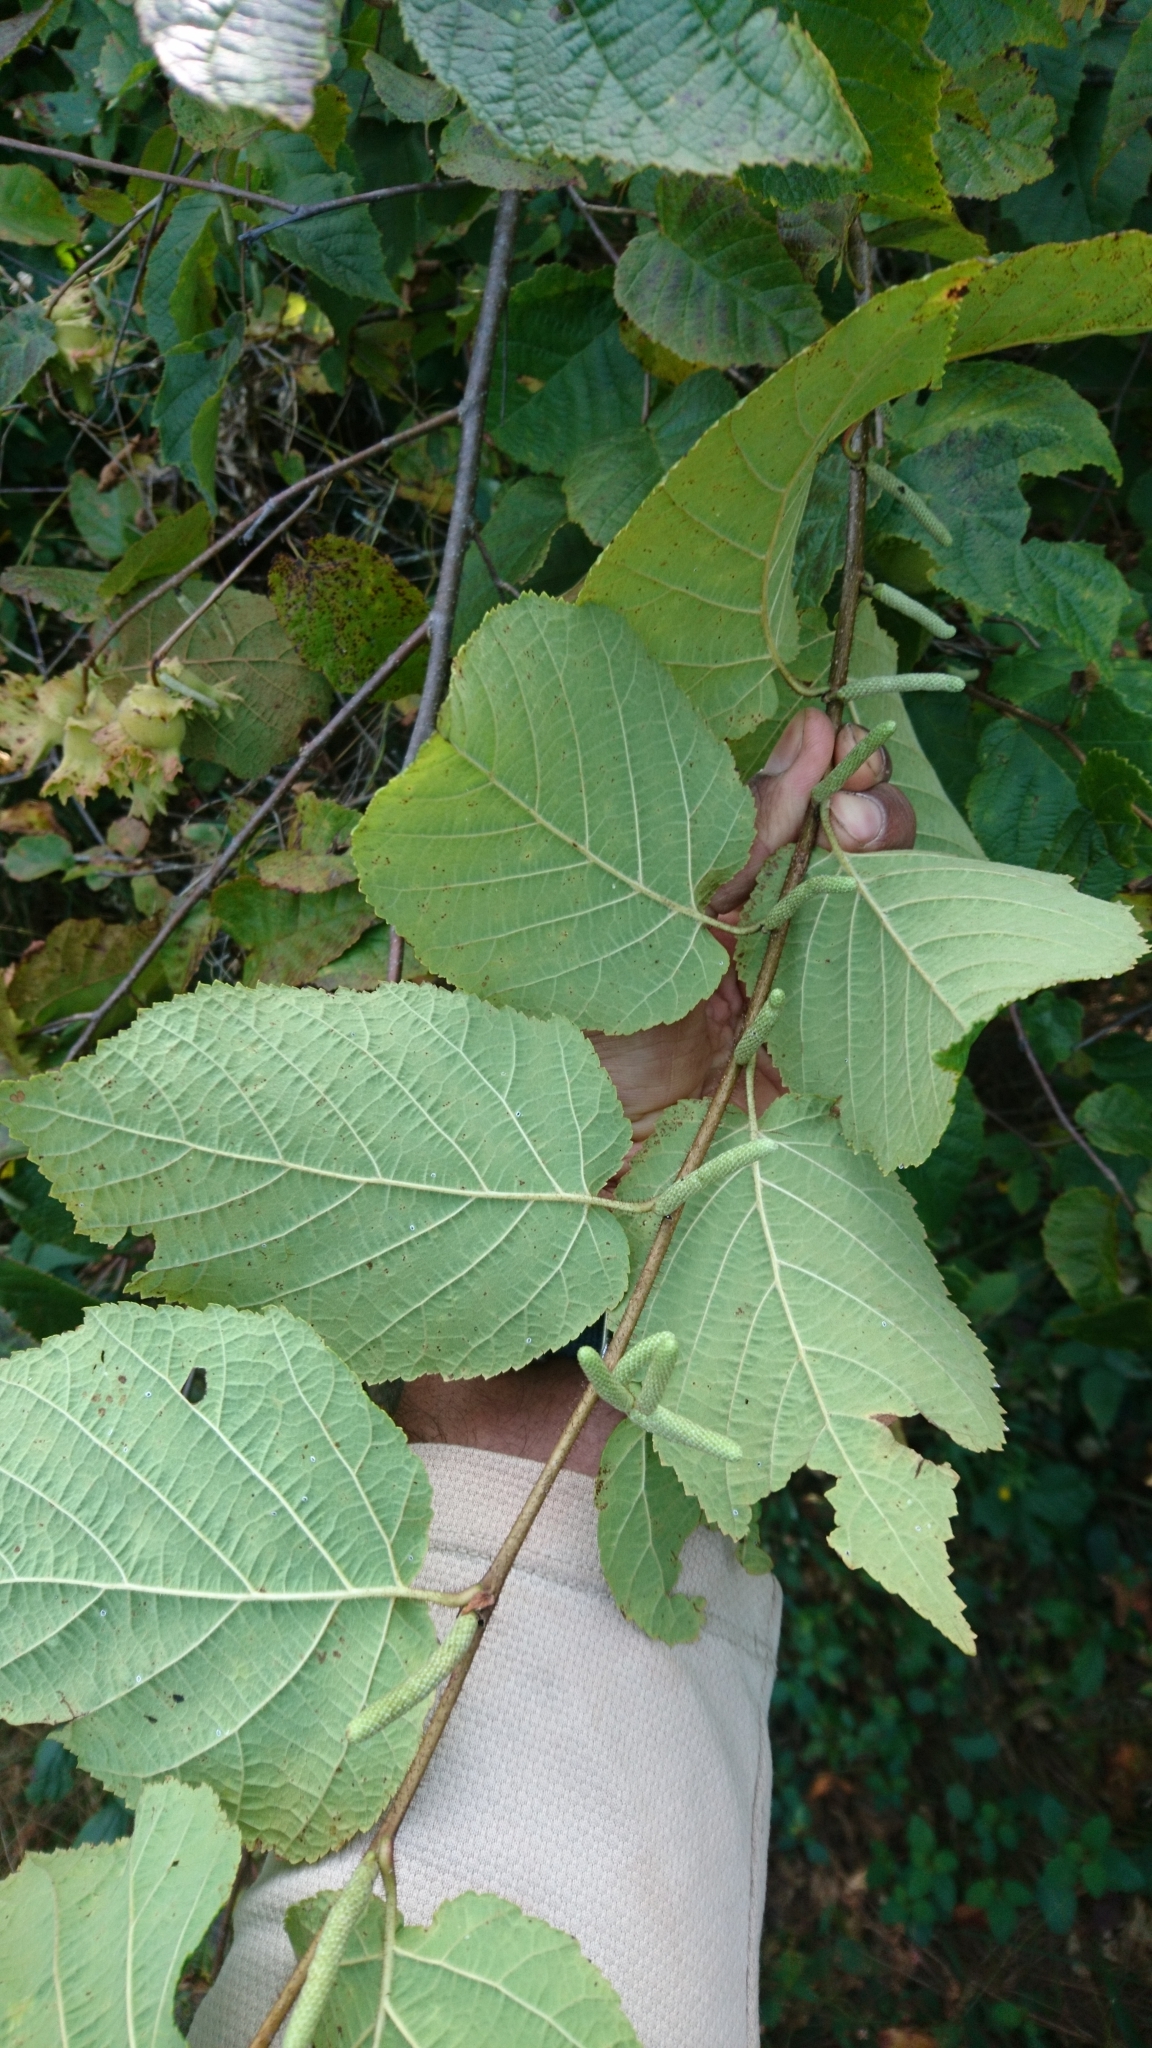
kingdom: Plantae
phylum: Tracheophyta
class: Magnoliopsida
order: Fagales
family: Betulaceae
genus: Corylus
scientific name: Corylus americana
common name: American hazel
